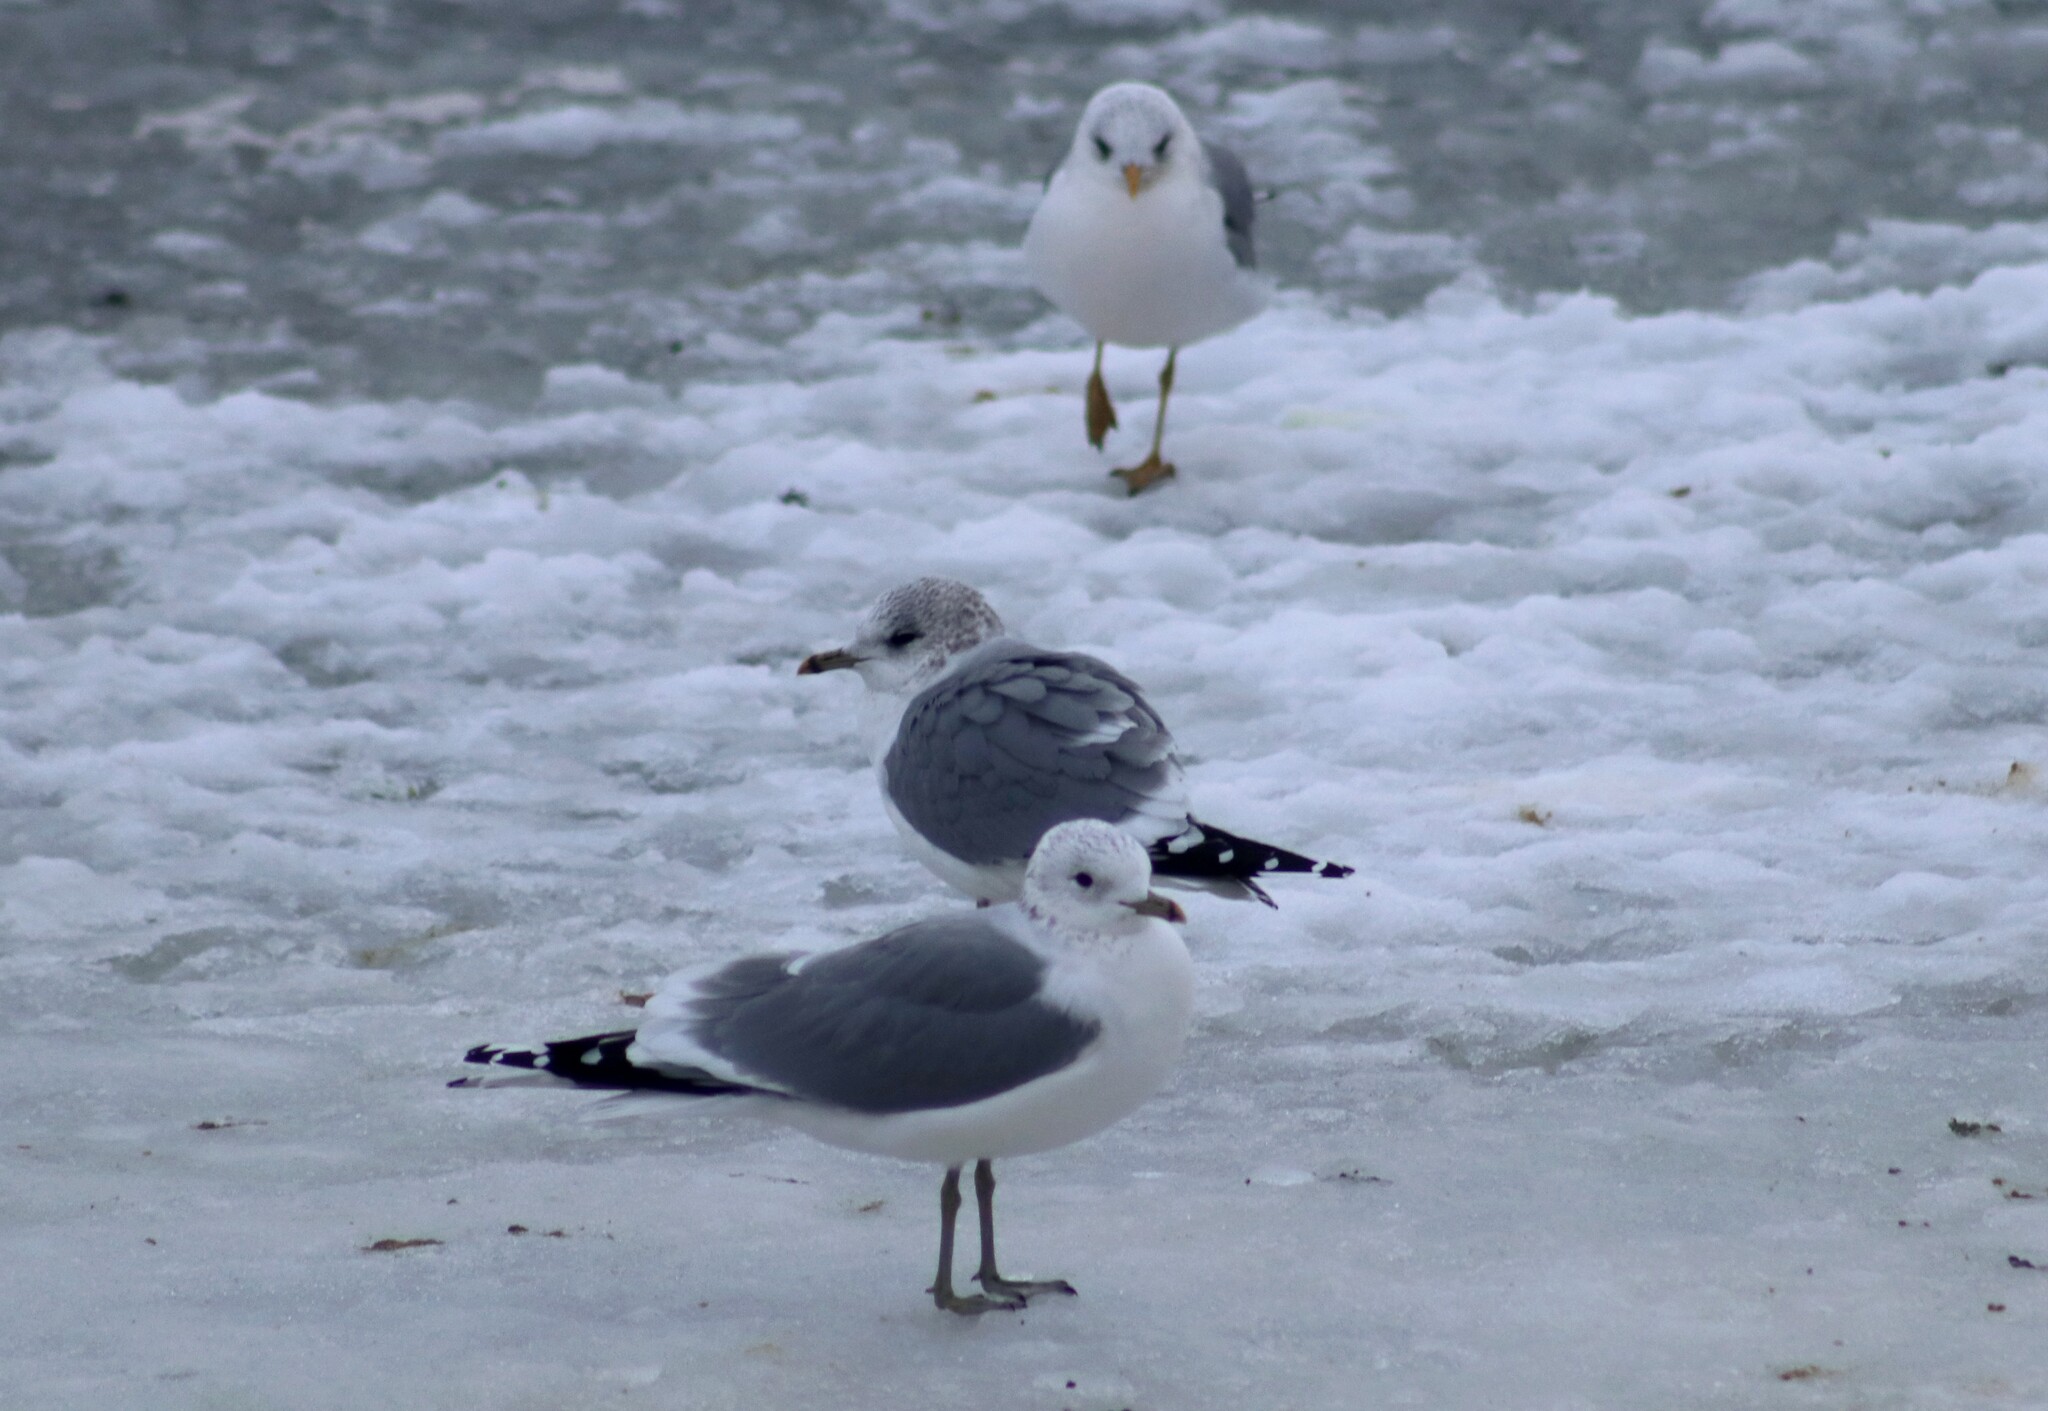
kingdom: Animalia
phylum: Chordata
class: Aves
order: Charadriiformes
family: Laridae
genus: Larus
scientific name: Larus canus
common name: Mew gull
